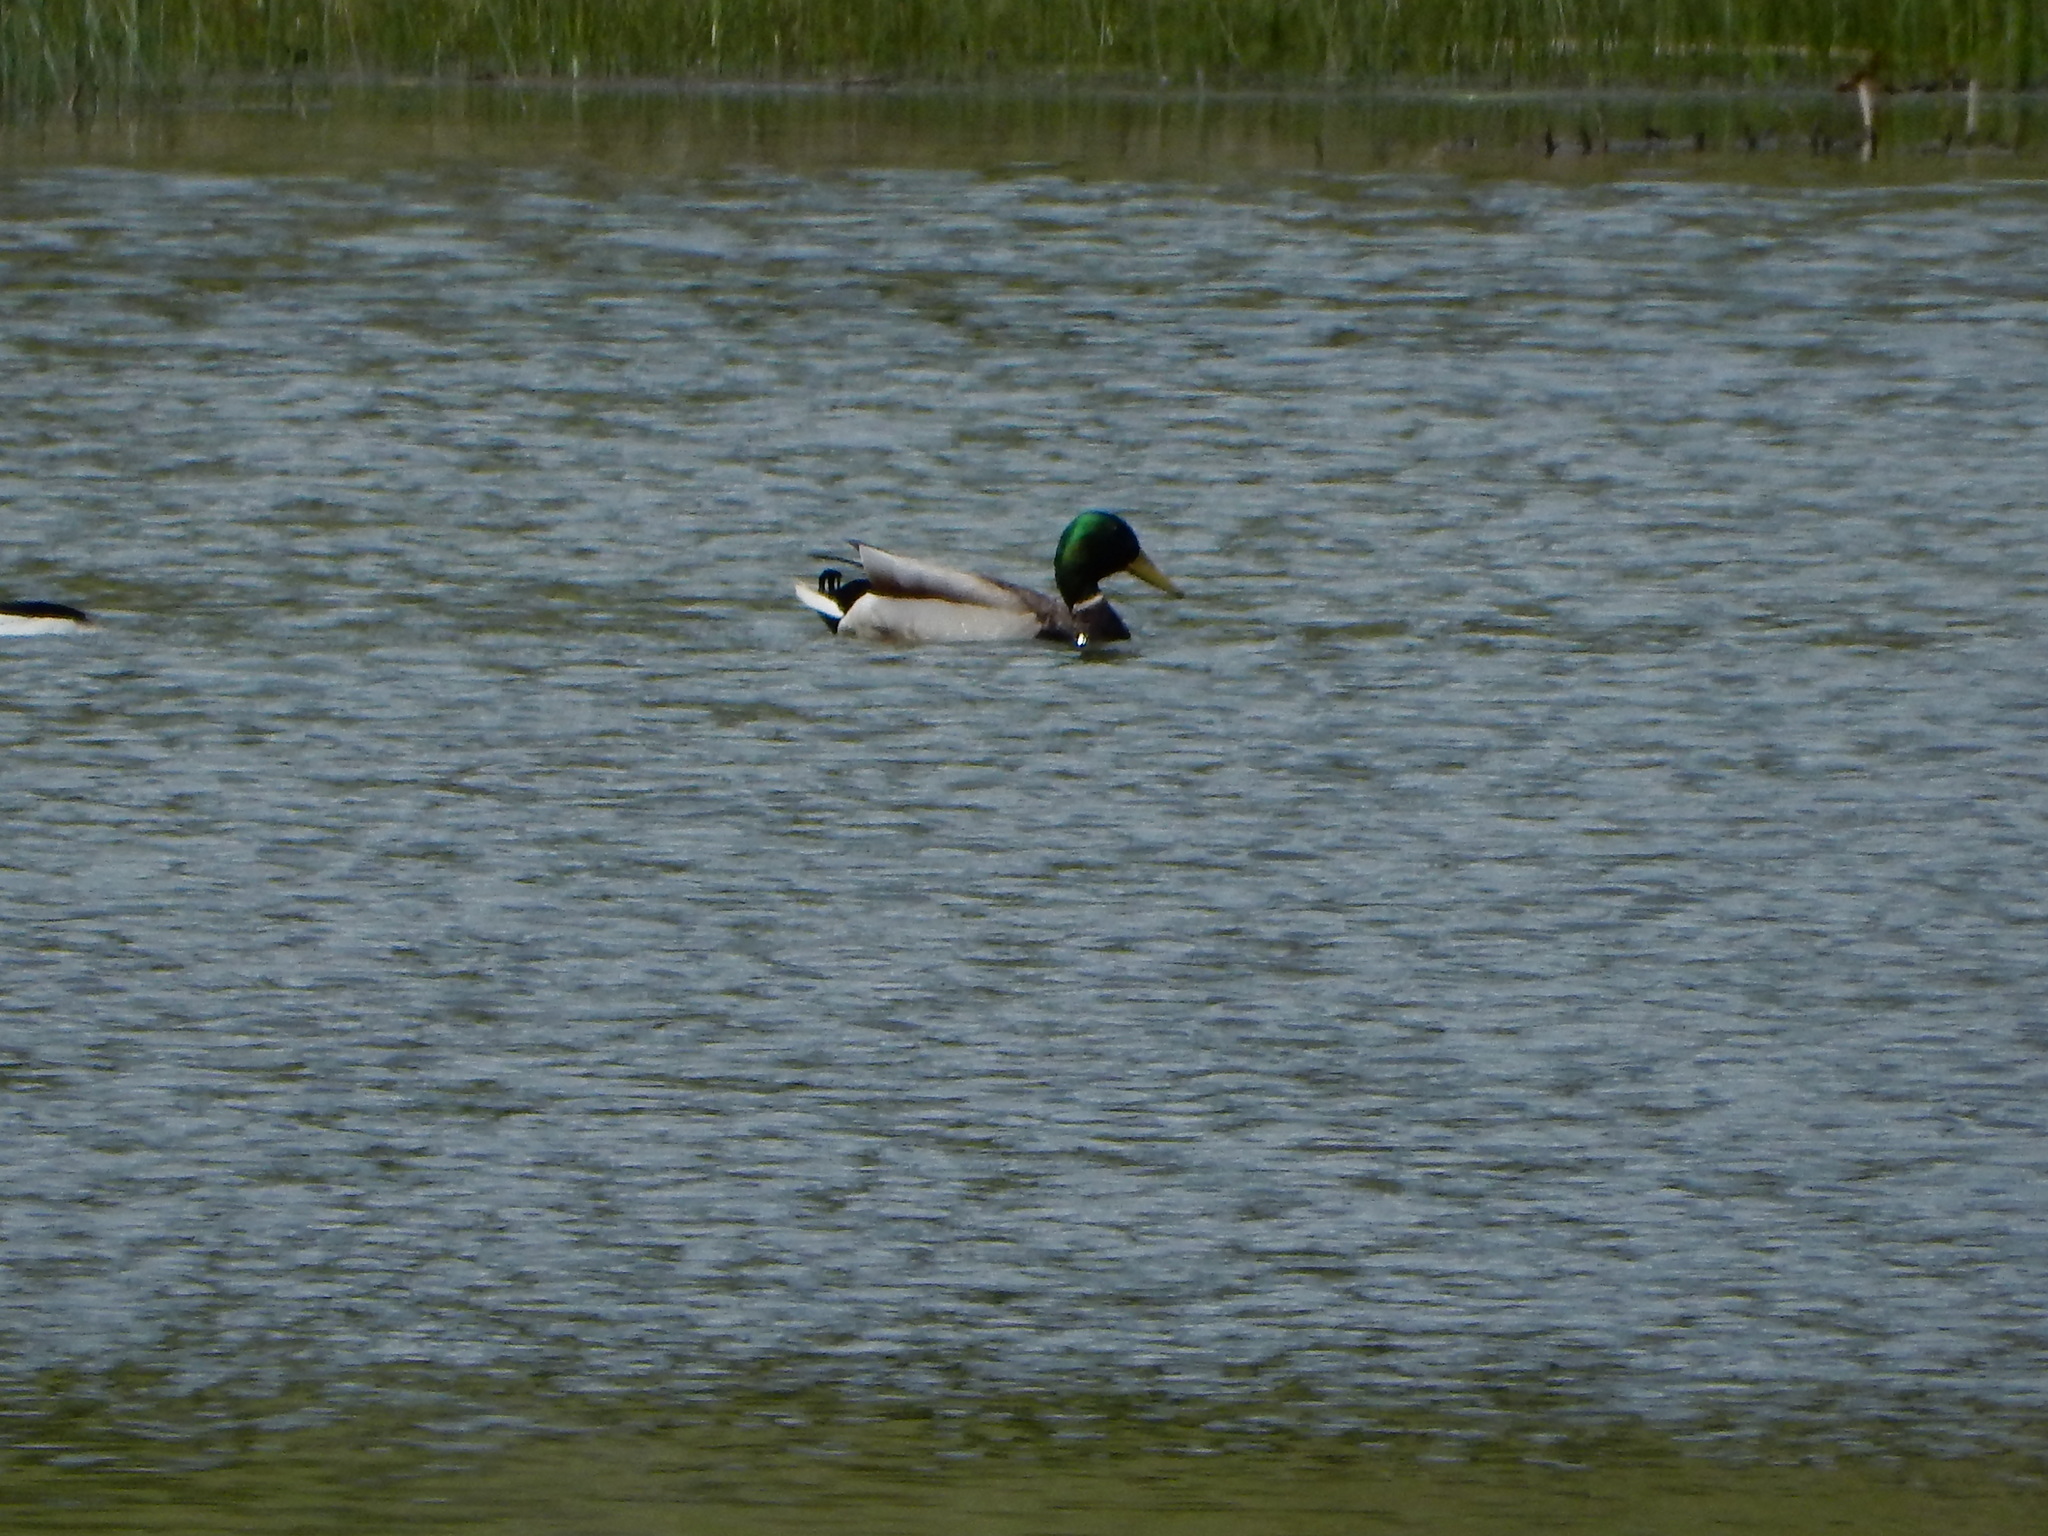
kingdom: Animalia
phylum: Chordata
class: Aves
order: Anseriformes
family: Anatidae
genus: Anas
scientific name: Anas platyrhynchos
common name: Mallard
